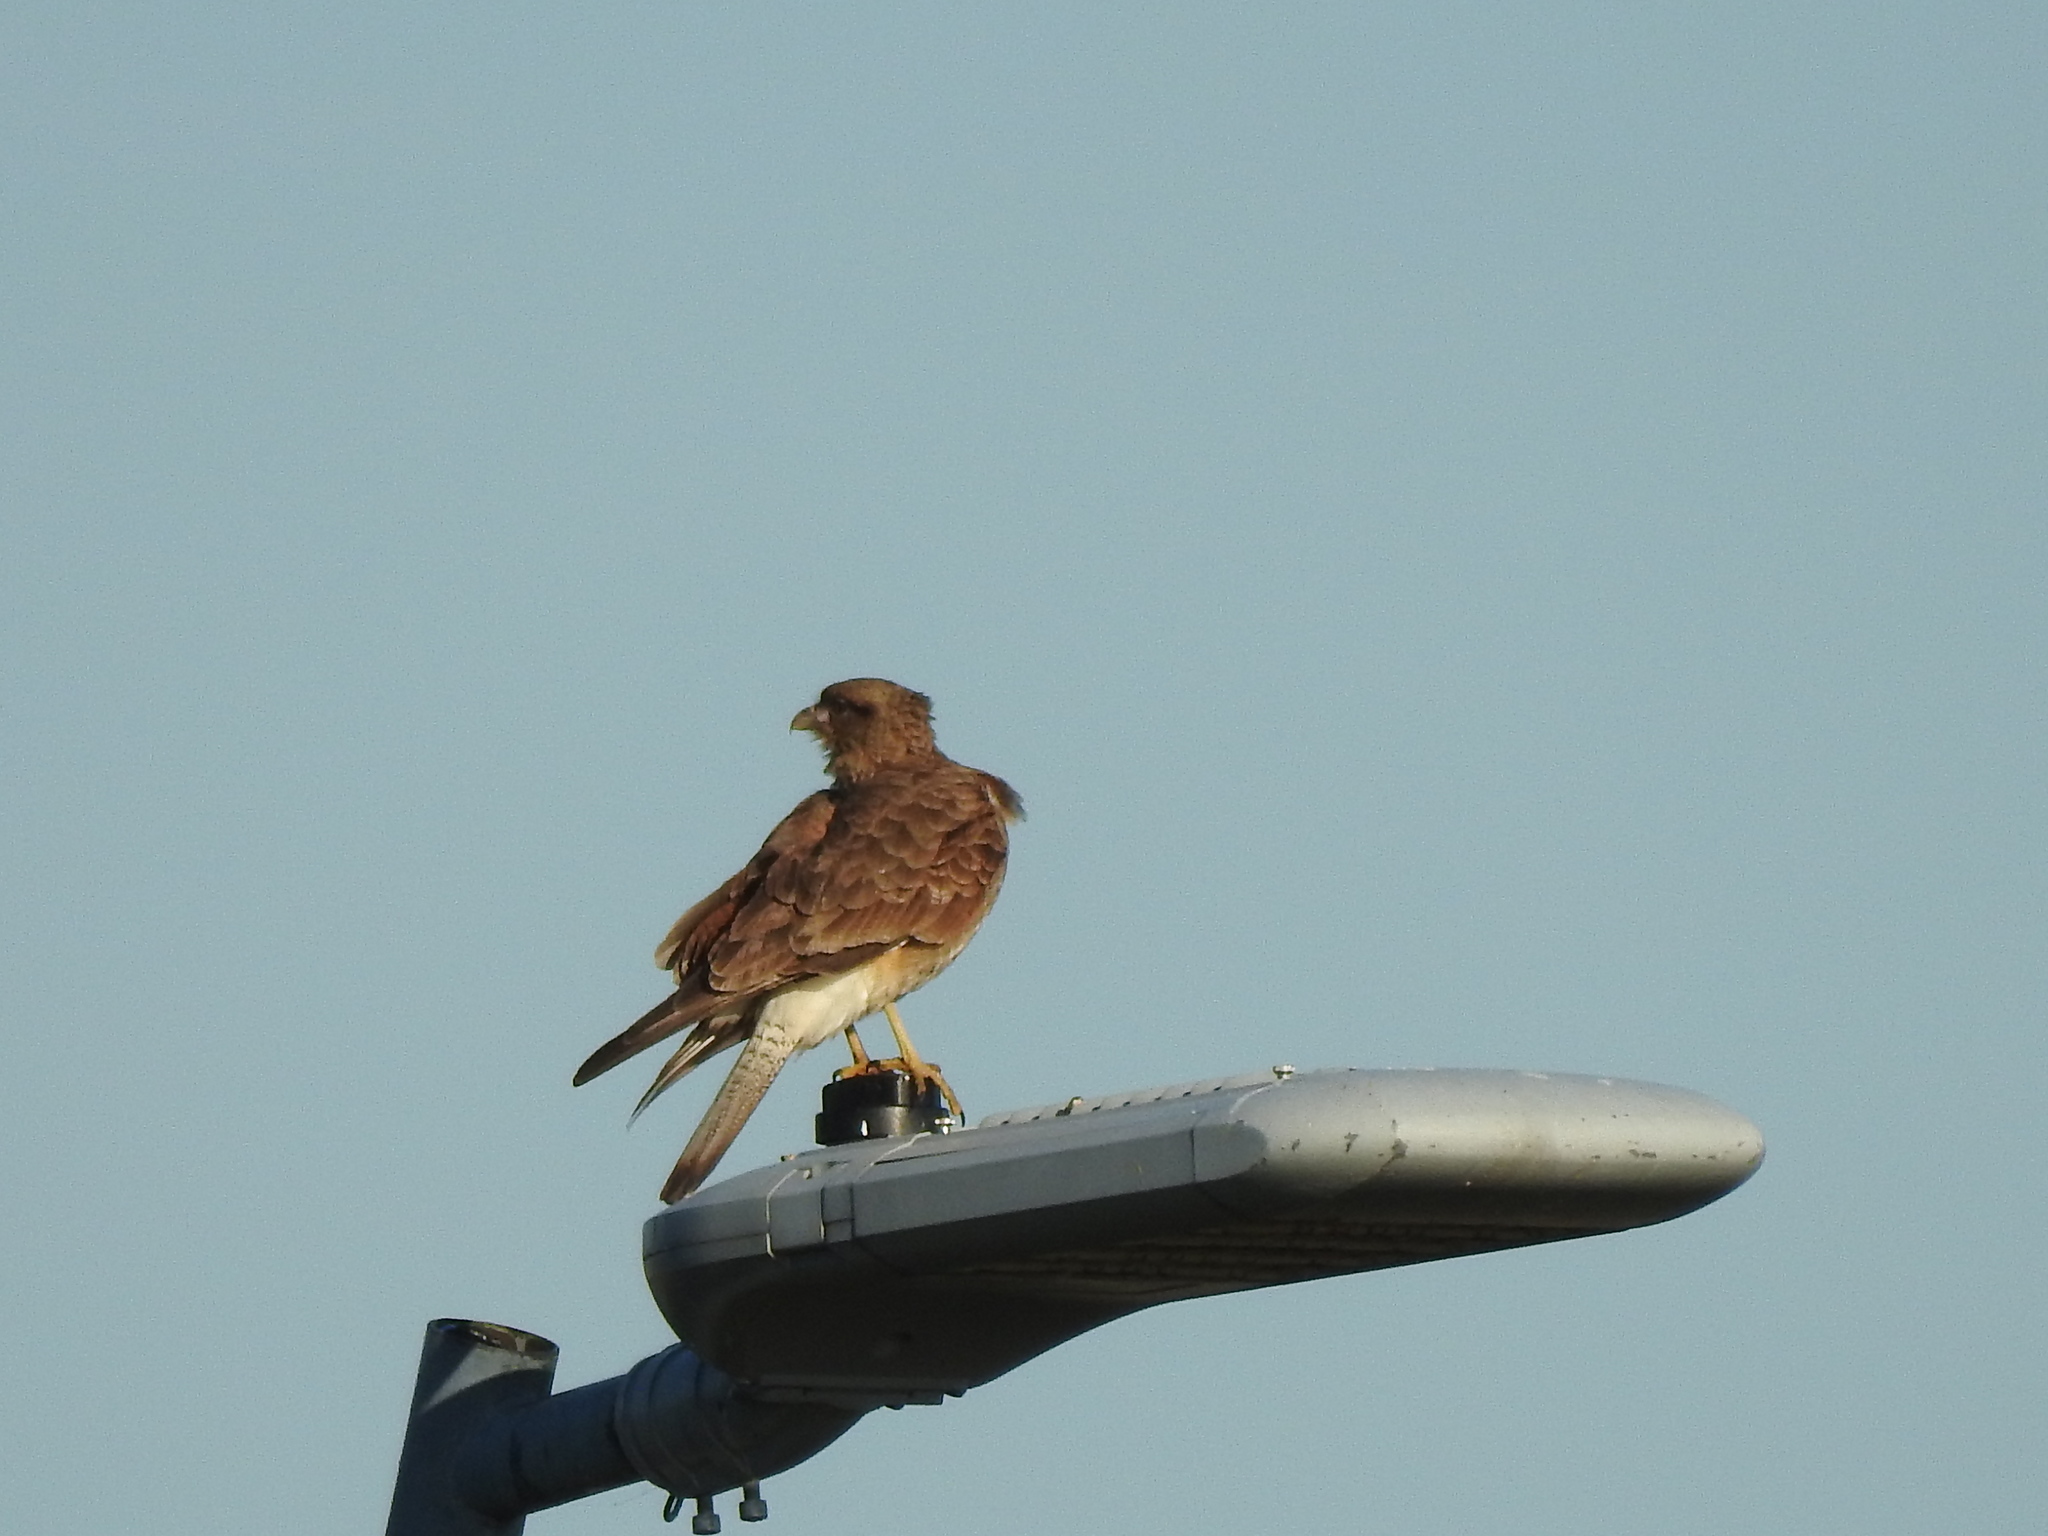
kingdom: Animalia
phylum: Chordata
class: Aves
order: Falconiformes
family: Falconidae
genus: Daptrius
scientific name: Daptrius
